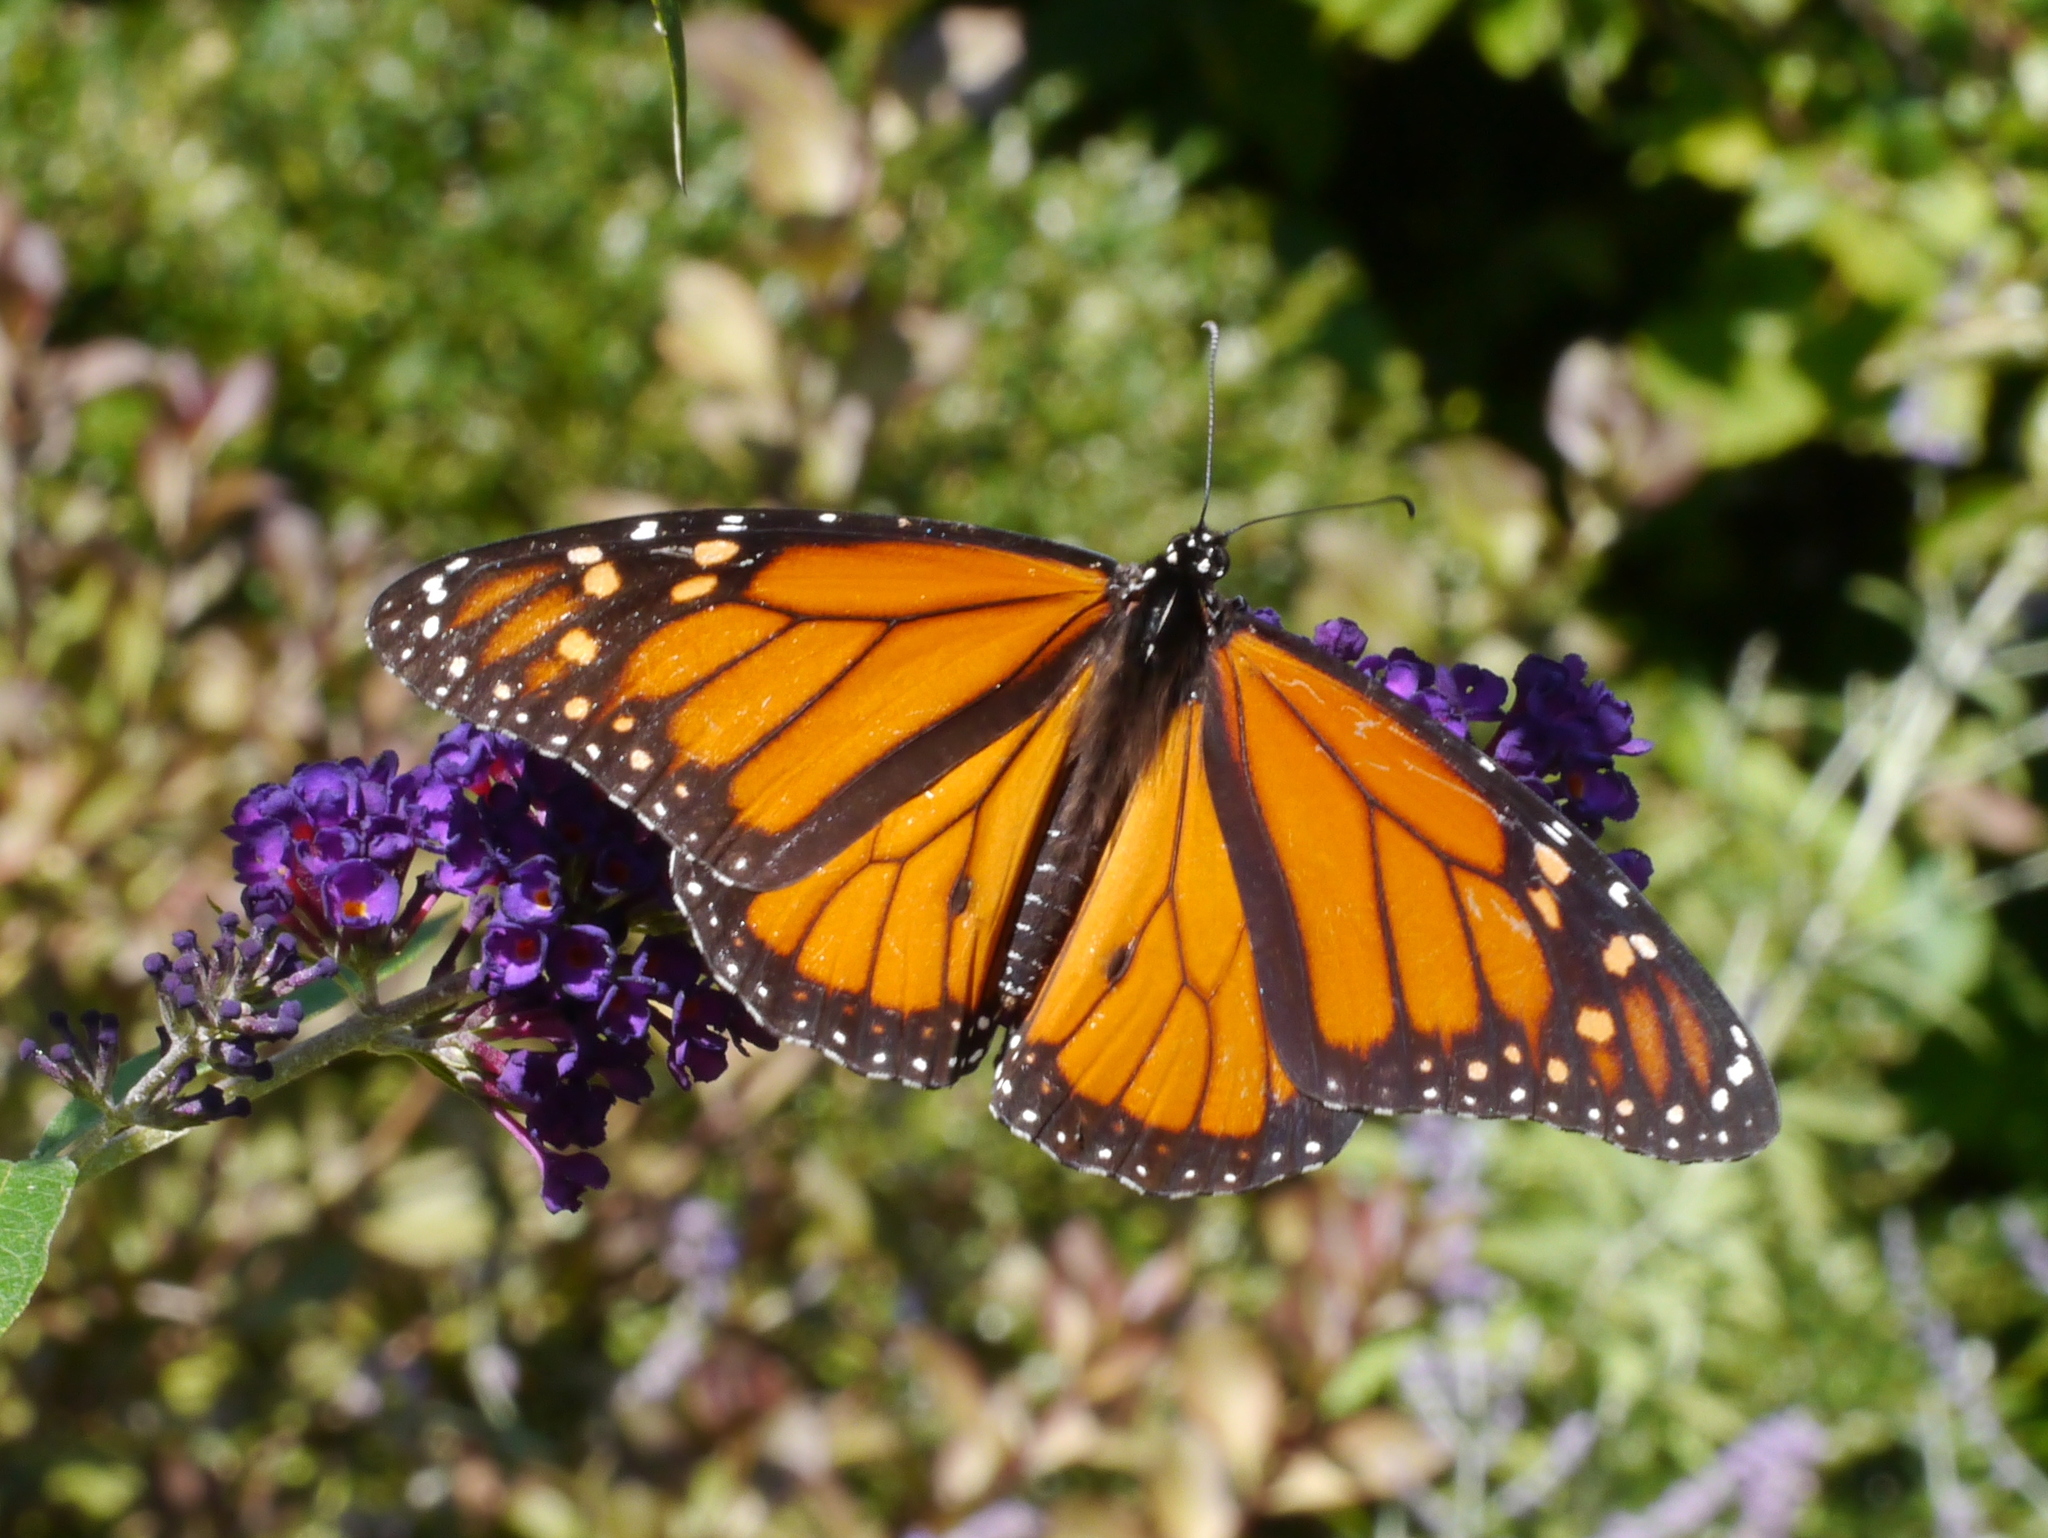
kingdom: Animalia
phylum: Arthropoda
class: Insecta
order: Lepidoptera
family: Nymphalidae
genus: Danaus
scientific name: Danaus plexippus
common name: Monarch
